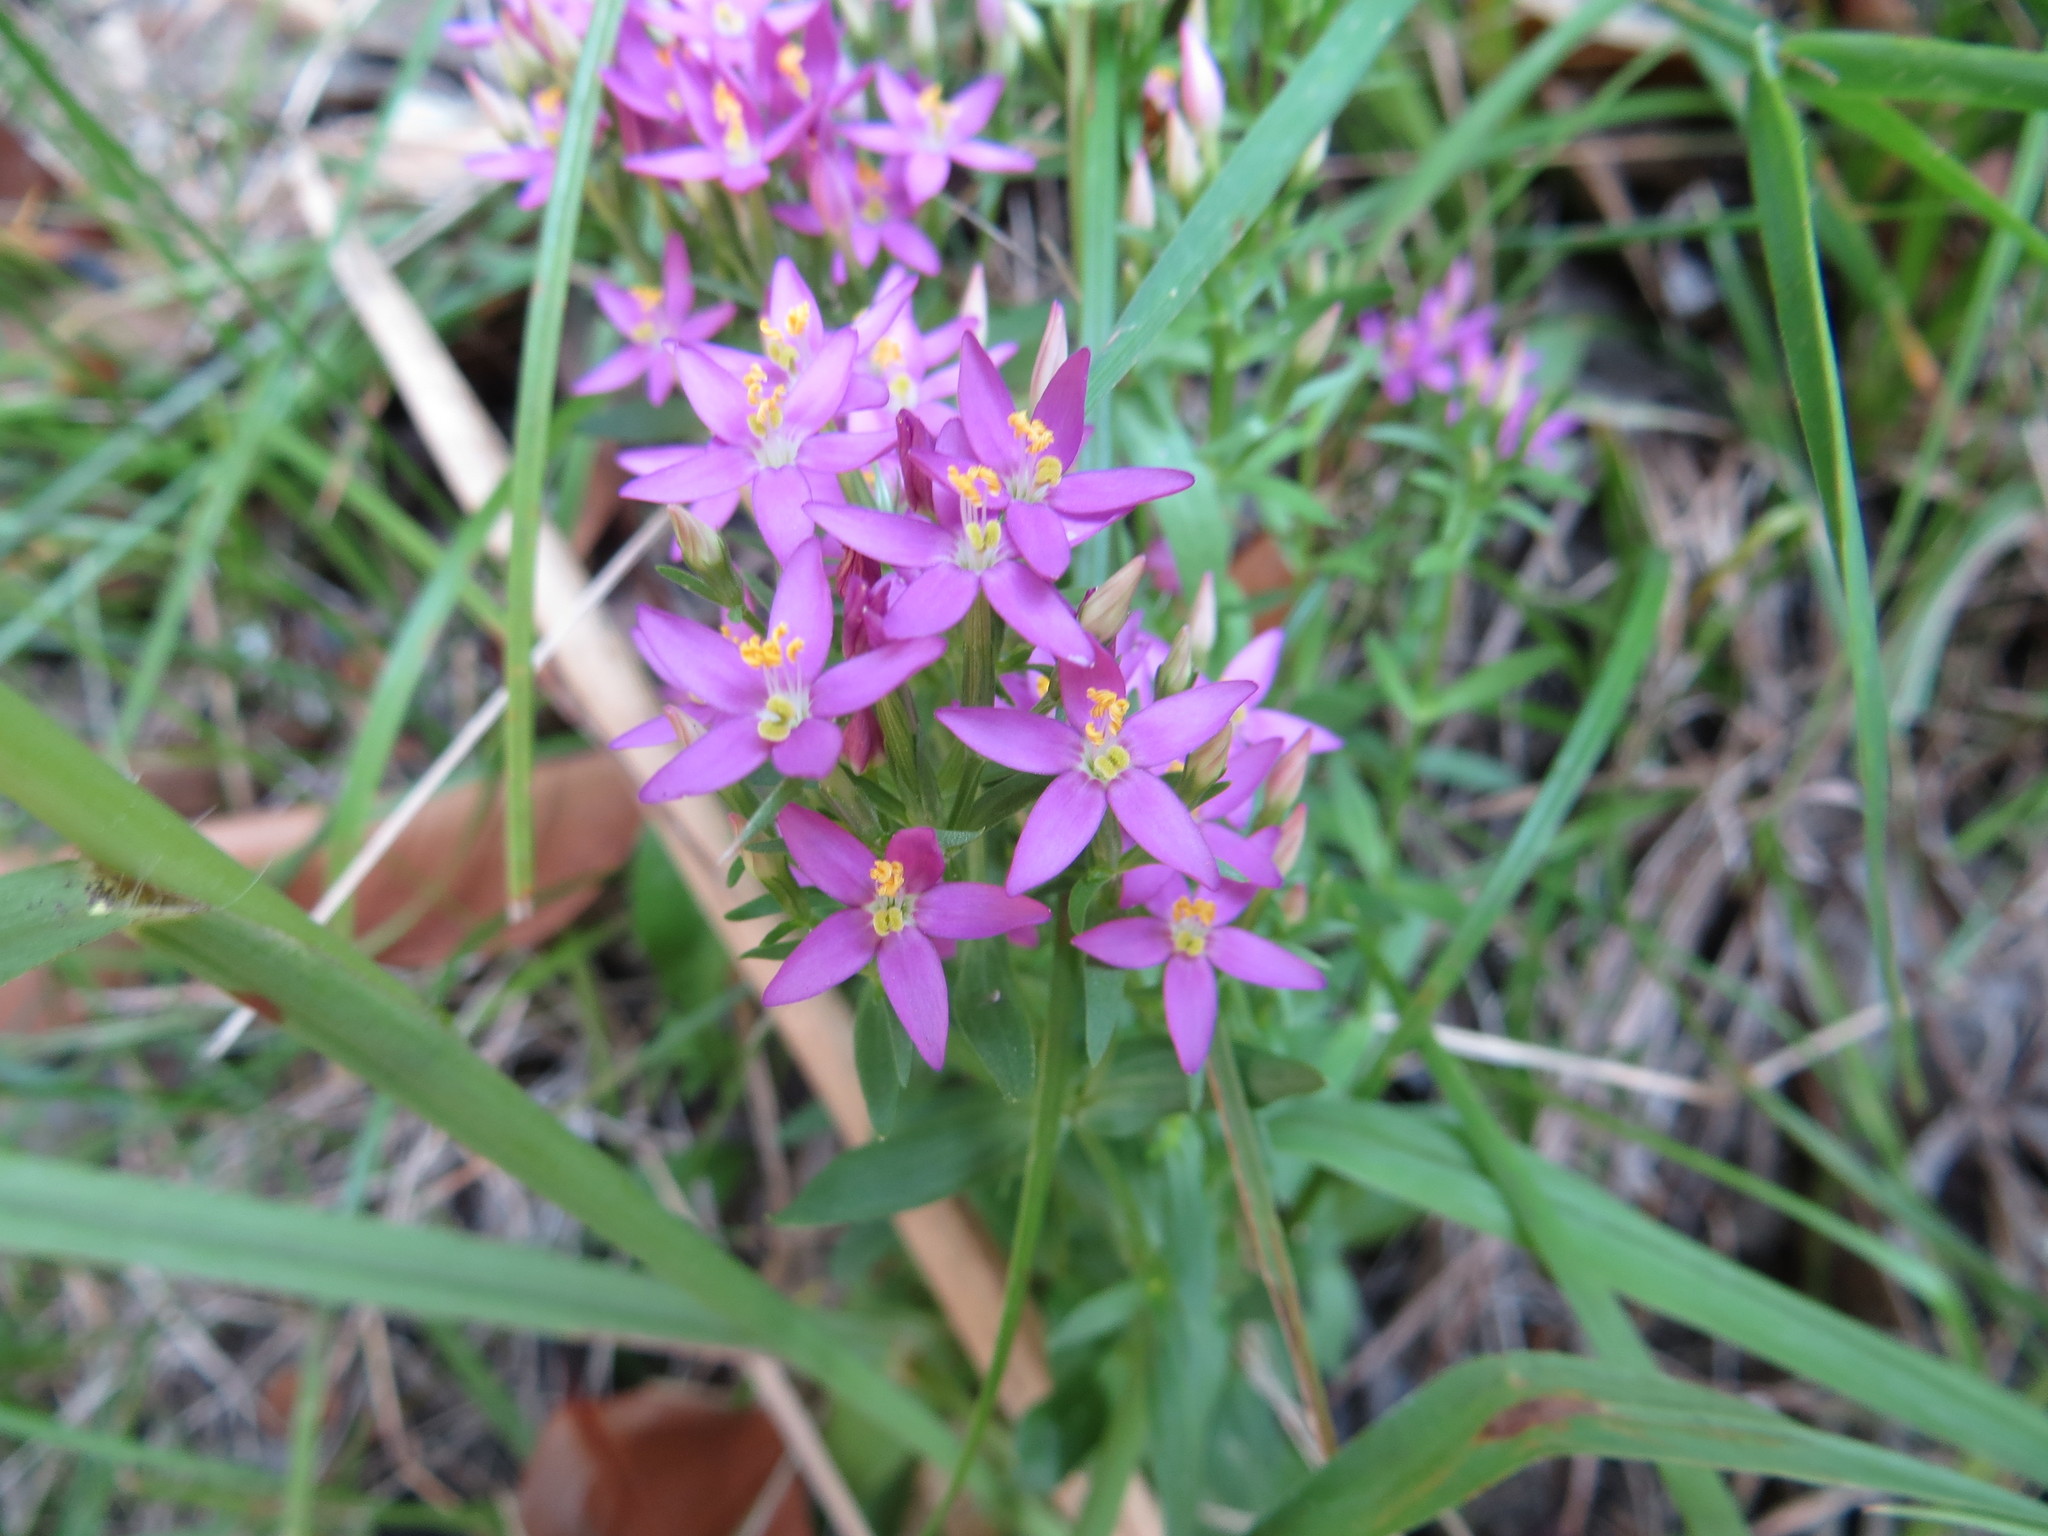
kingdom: Plantae
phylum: Tracheophyta
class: Magnoliopsida
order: Gentianales
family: Gentianaceae
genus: Centaurium
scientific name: Centaurium erythraea
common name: Common centaury
